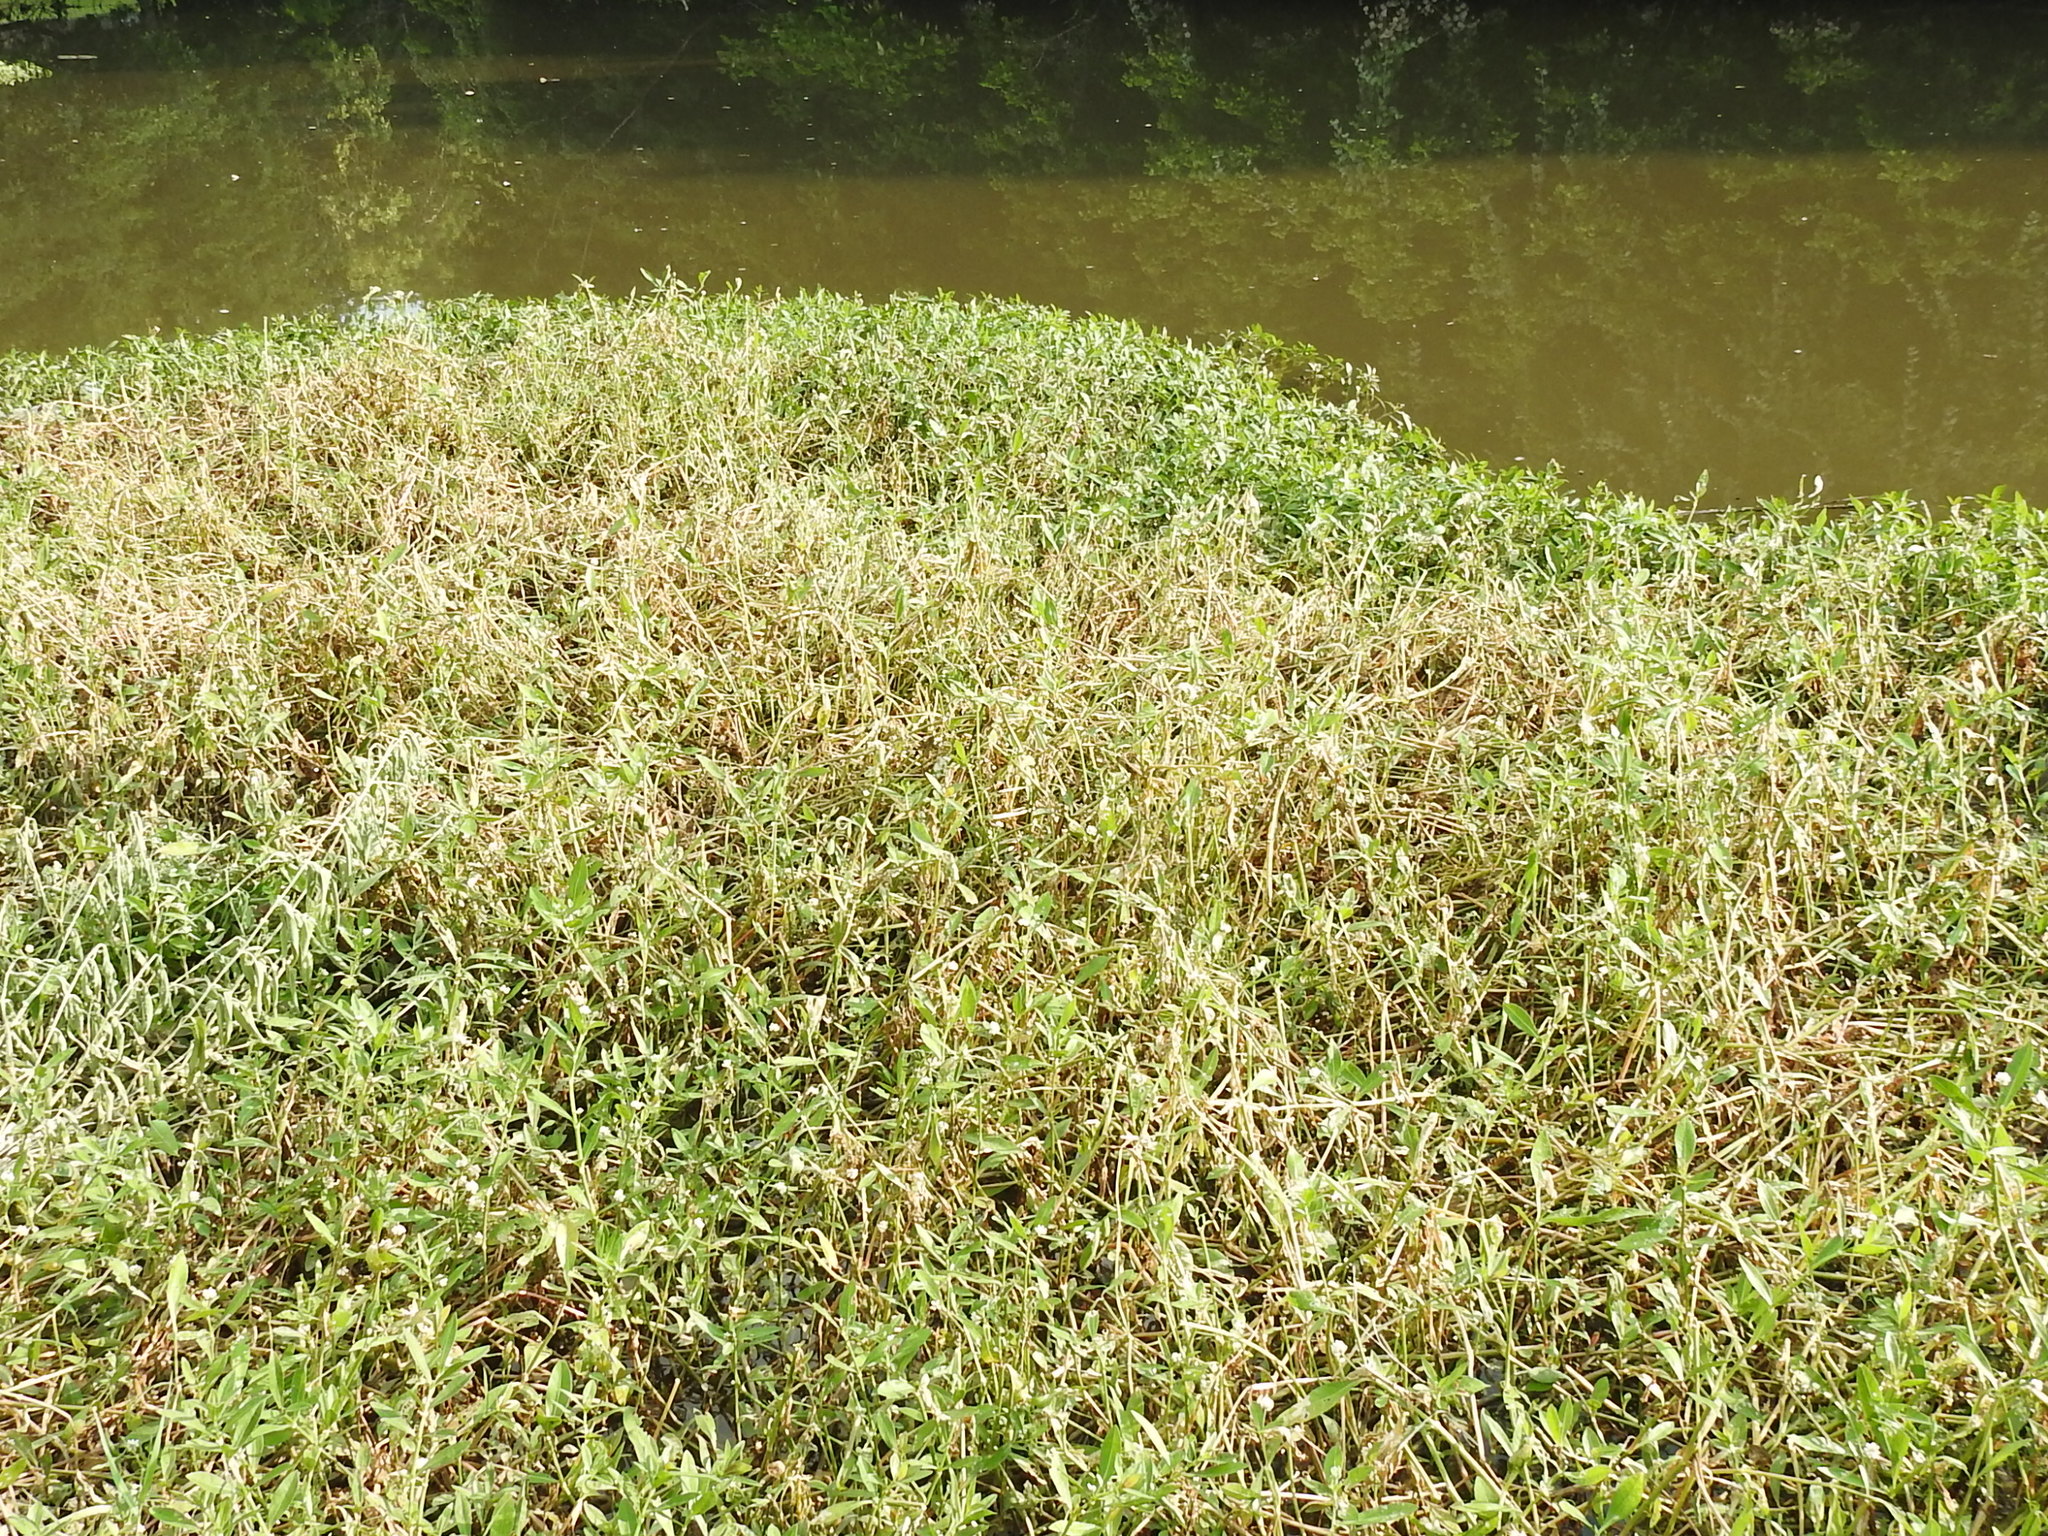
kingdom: Plantae
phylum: Tracheophyta
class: Magnoliopsida
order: Caryophyllales
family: Amaranthaceae
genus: Alternanthera
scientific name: Alternanthera philoxeroides
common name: Alligatorweed
